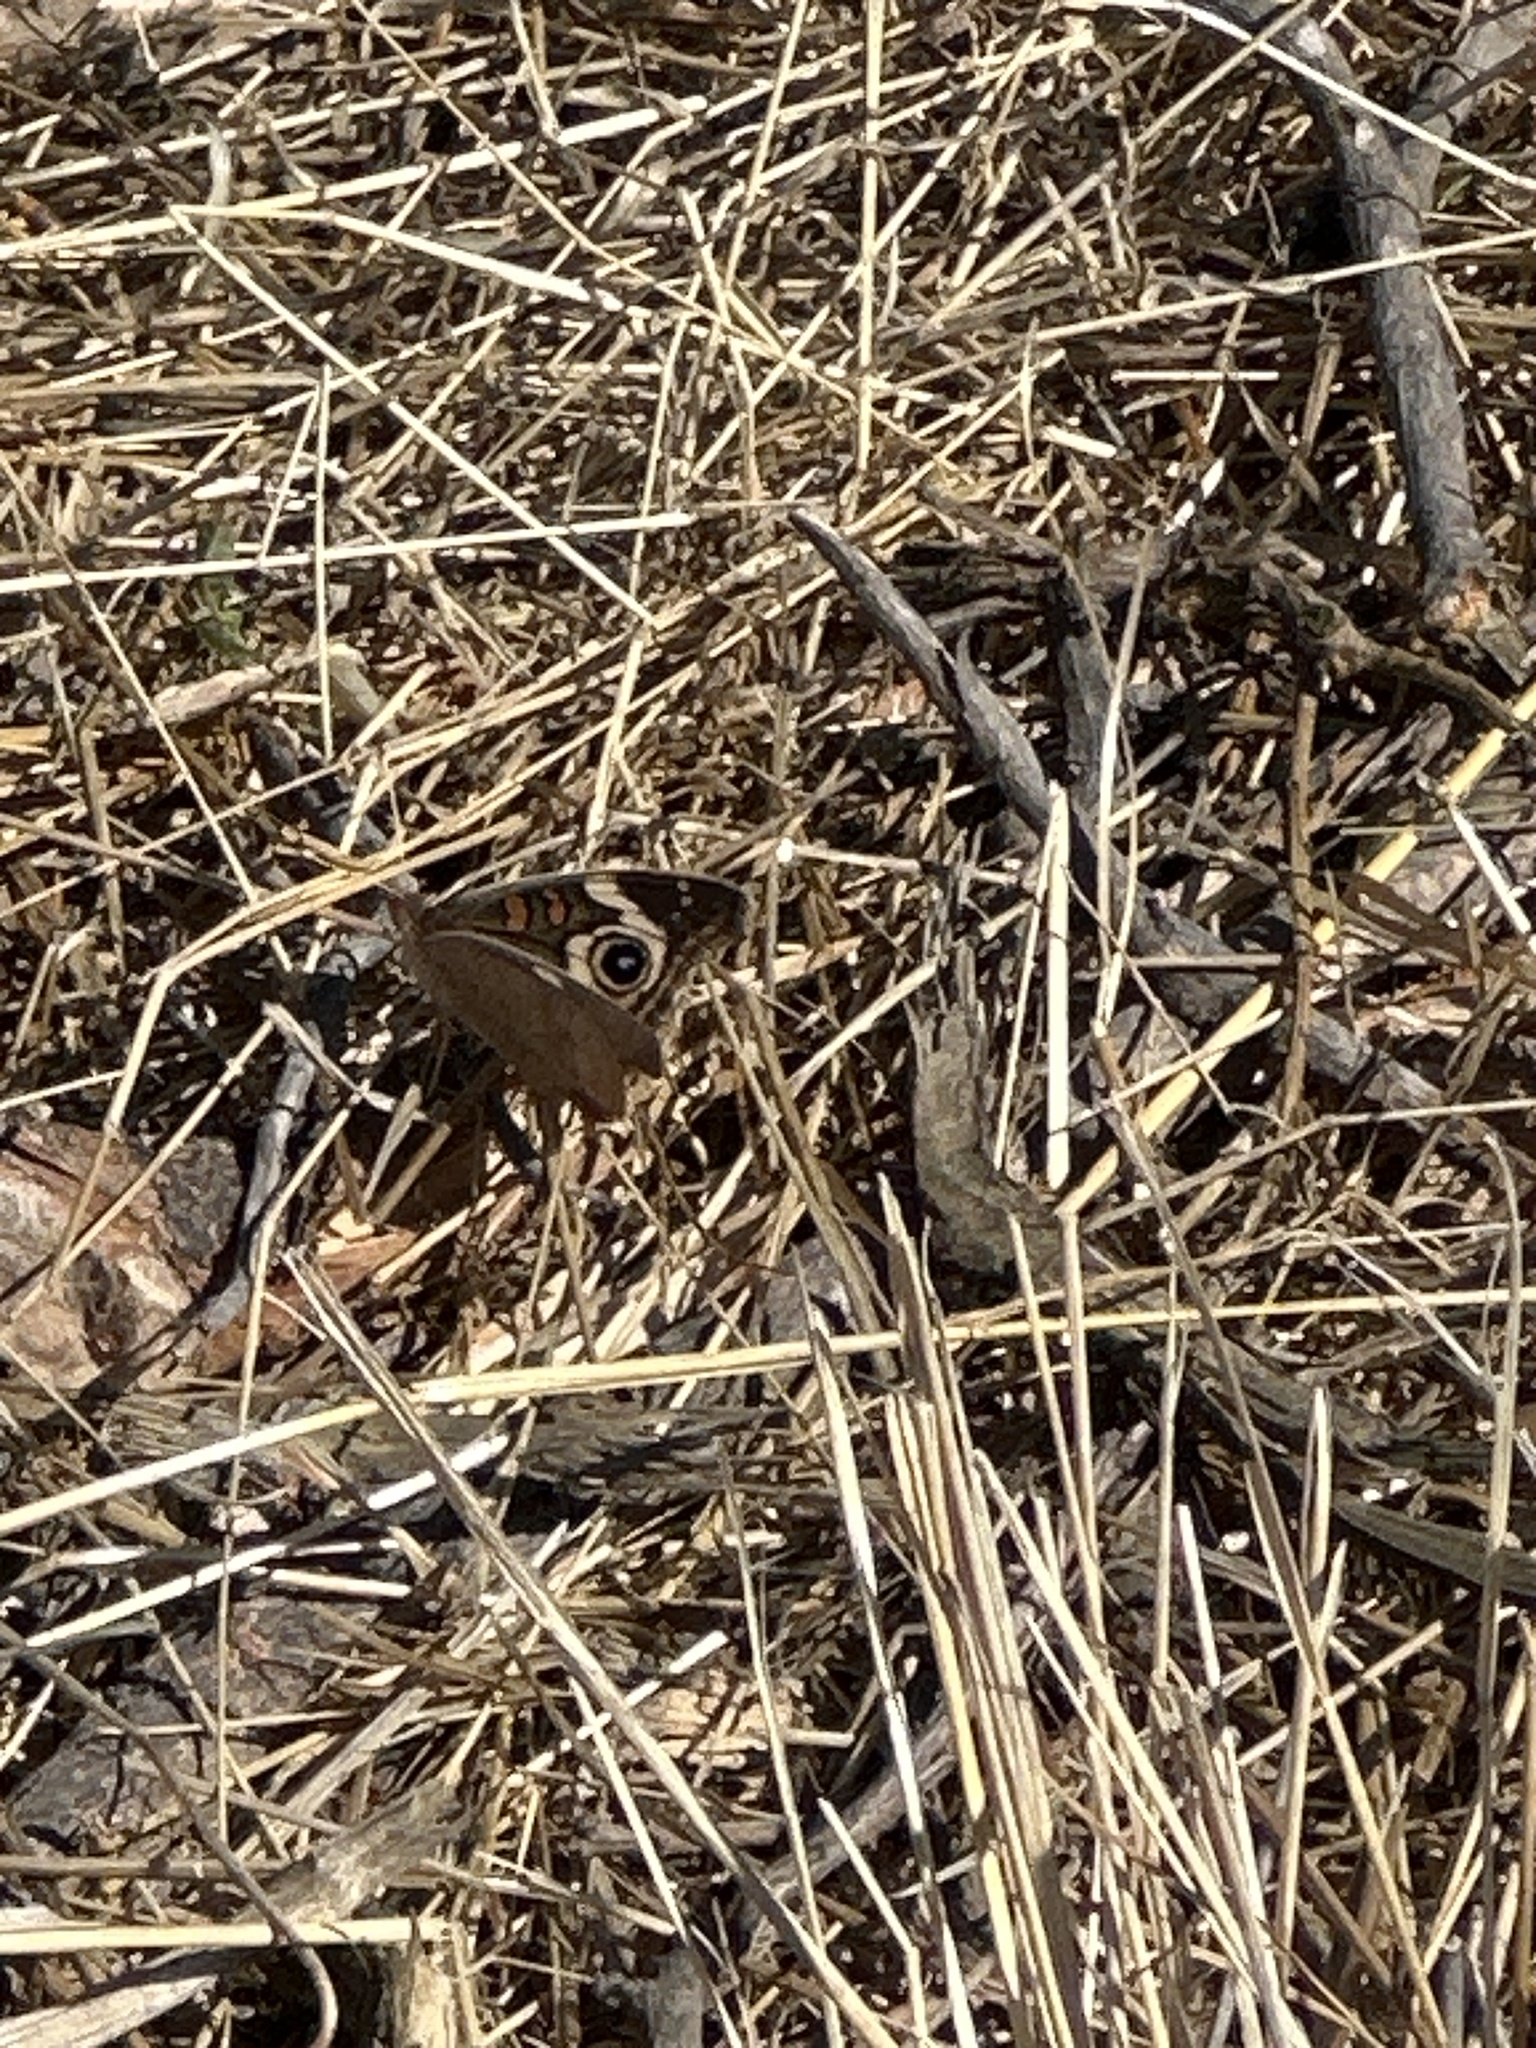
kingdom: Animalia
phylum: Arthropoda
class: Insecta
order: Lepidoptera
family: Nymphalidae
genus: Junonia
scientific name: Junonia grisea
